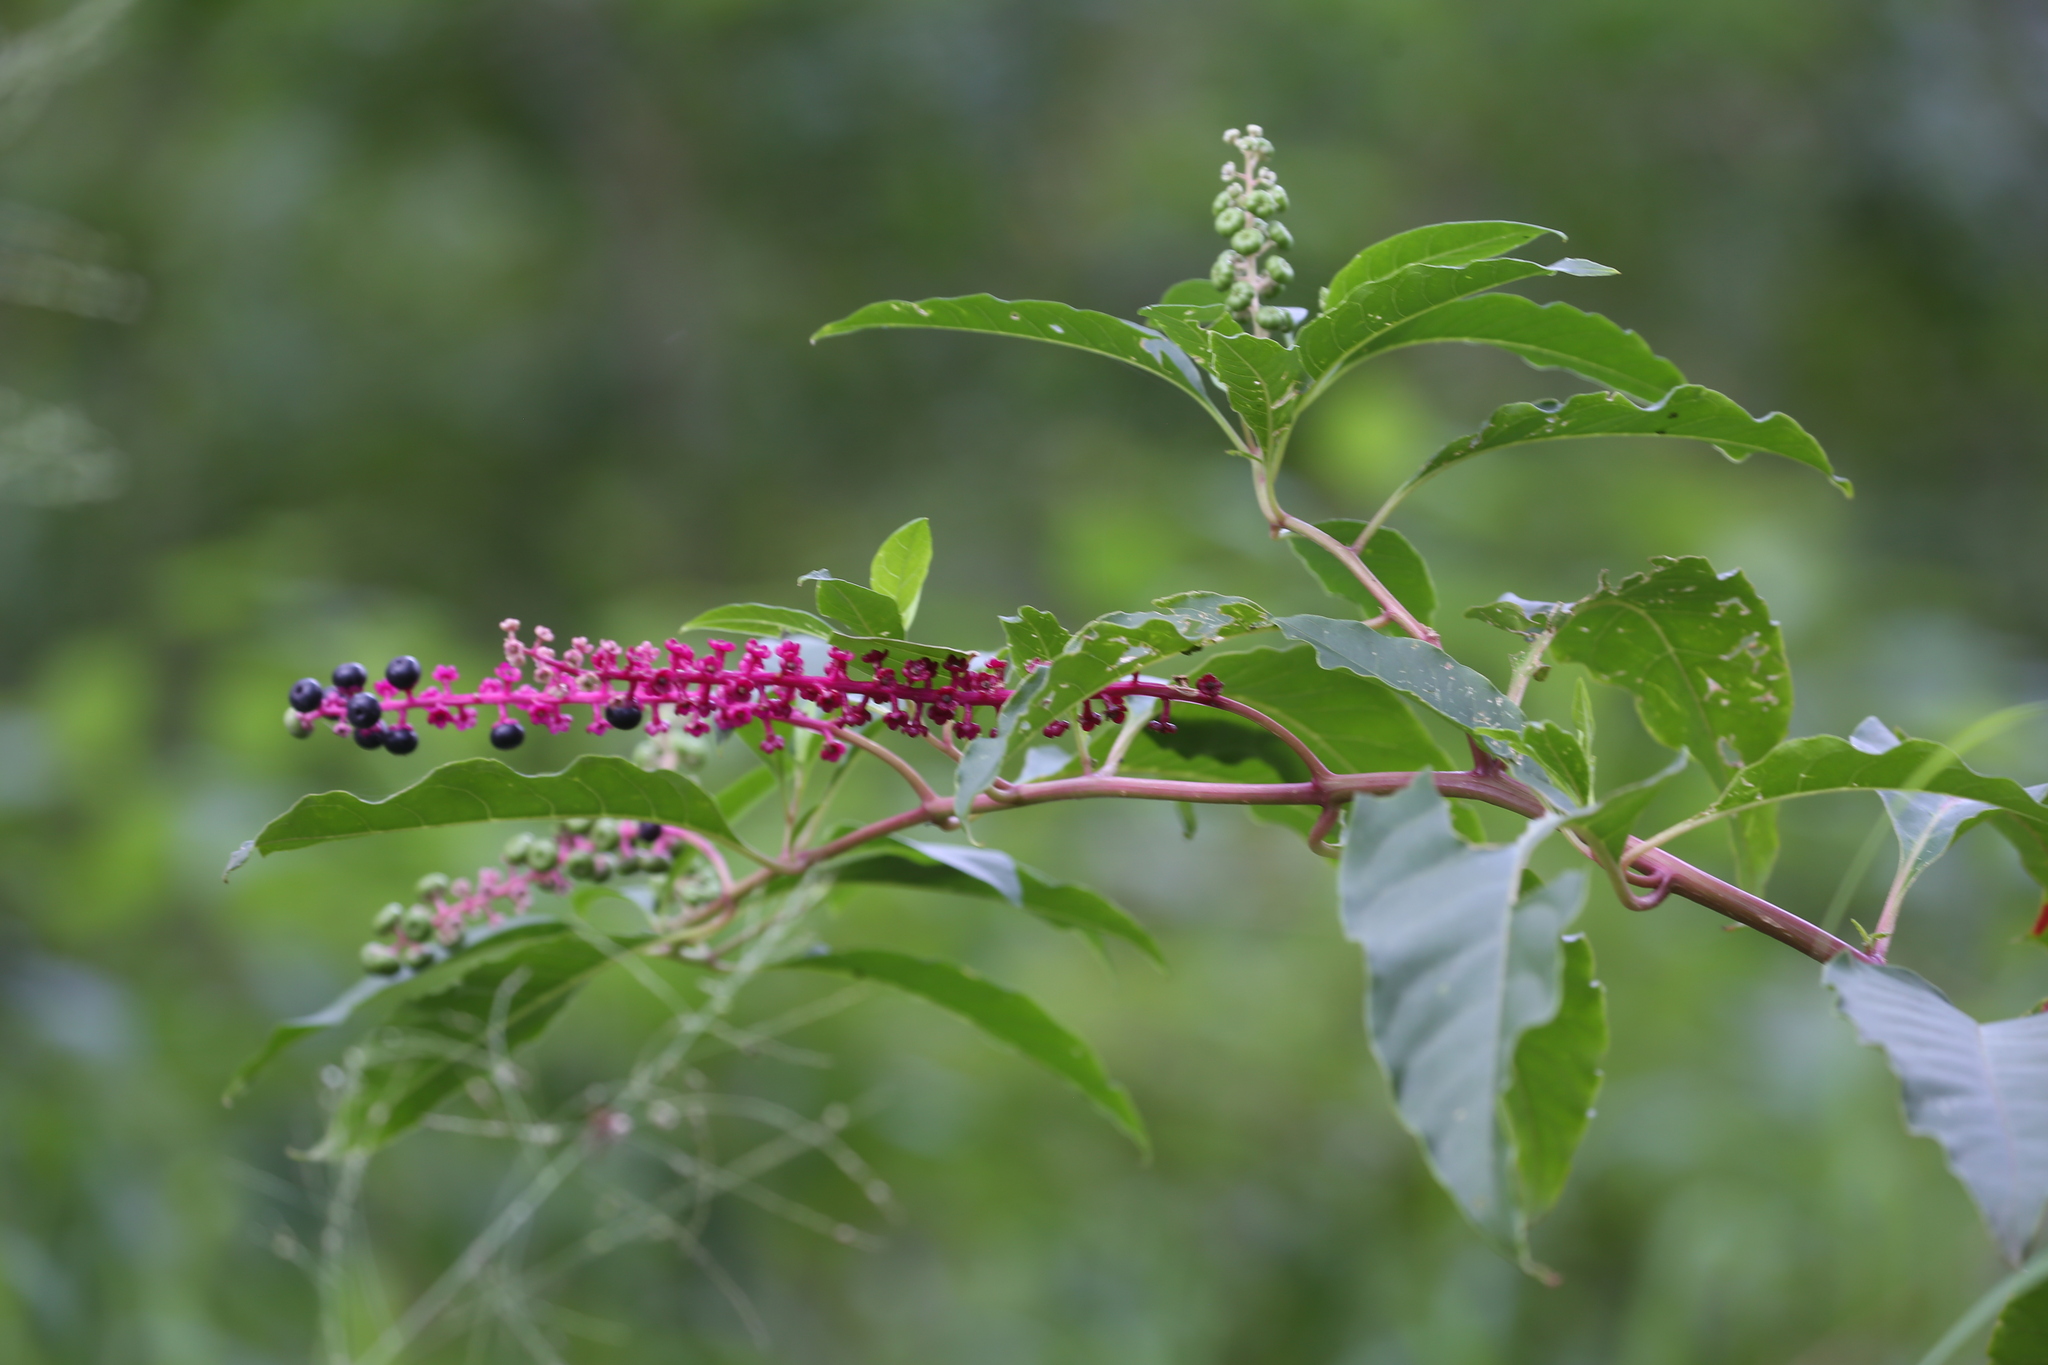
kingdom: Plantae
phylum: Tracheophyta
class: Magnoliopsida
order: Caryophyllales
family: Phytolaccaceae
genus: Phytolacca
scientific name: Phytolacca americana
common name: American pokeweed
